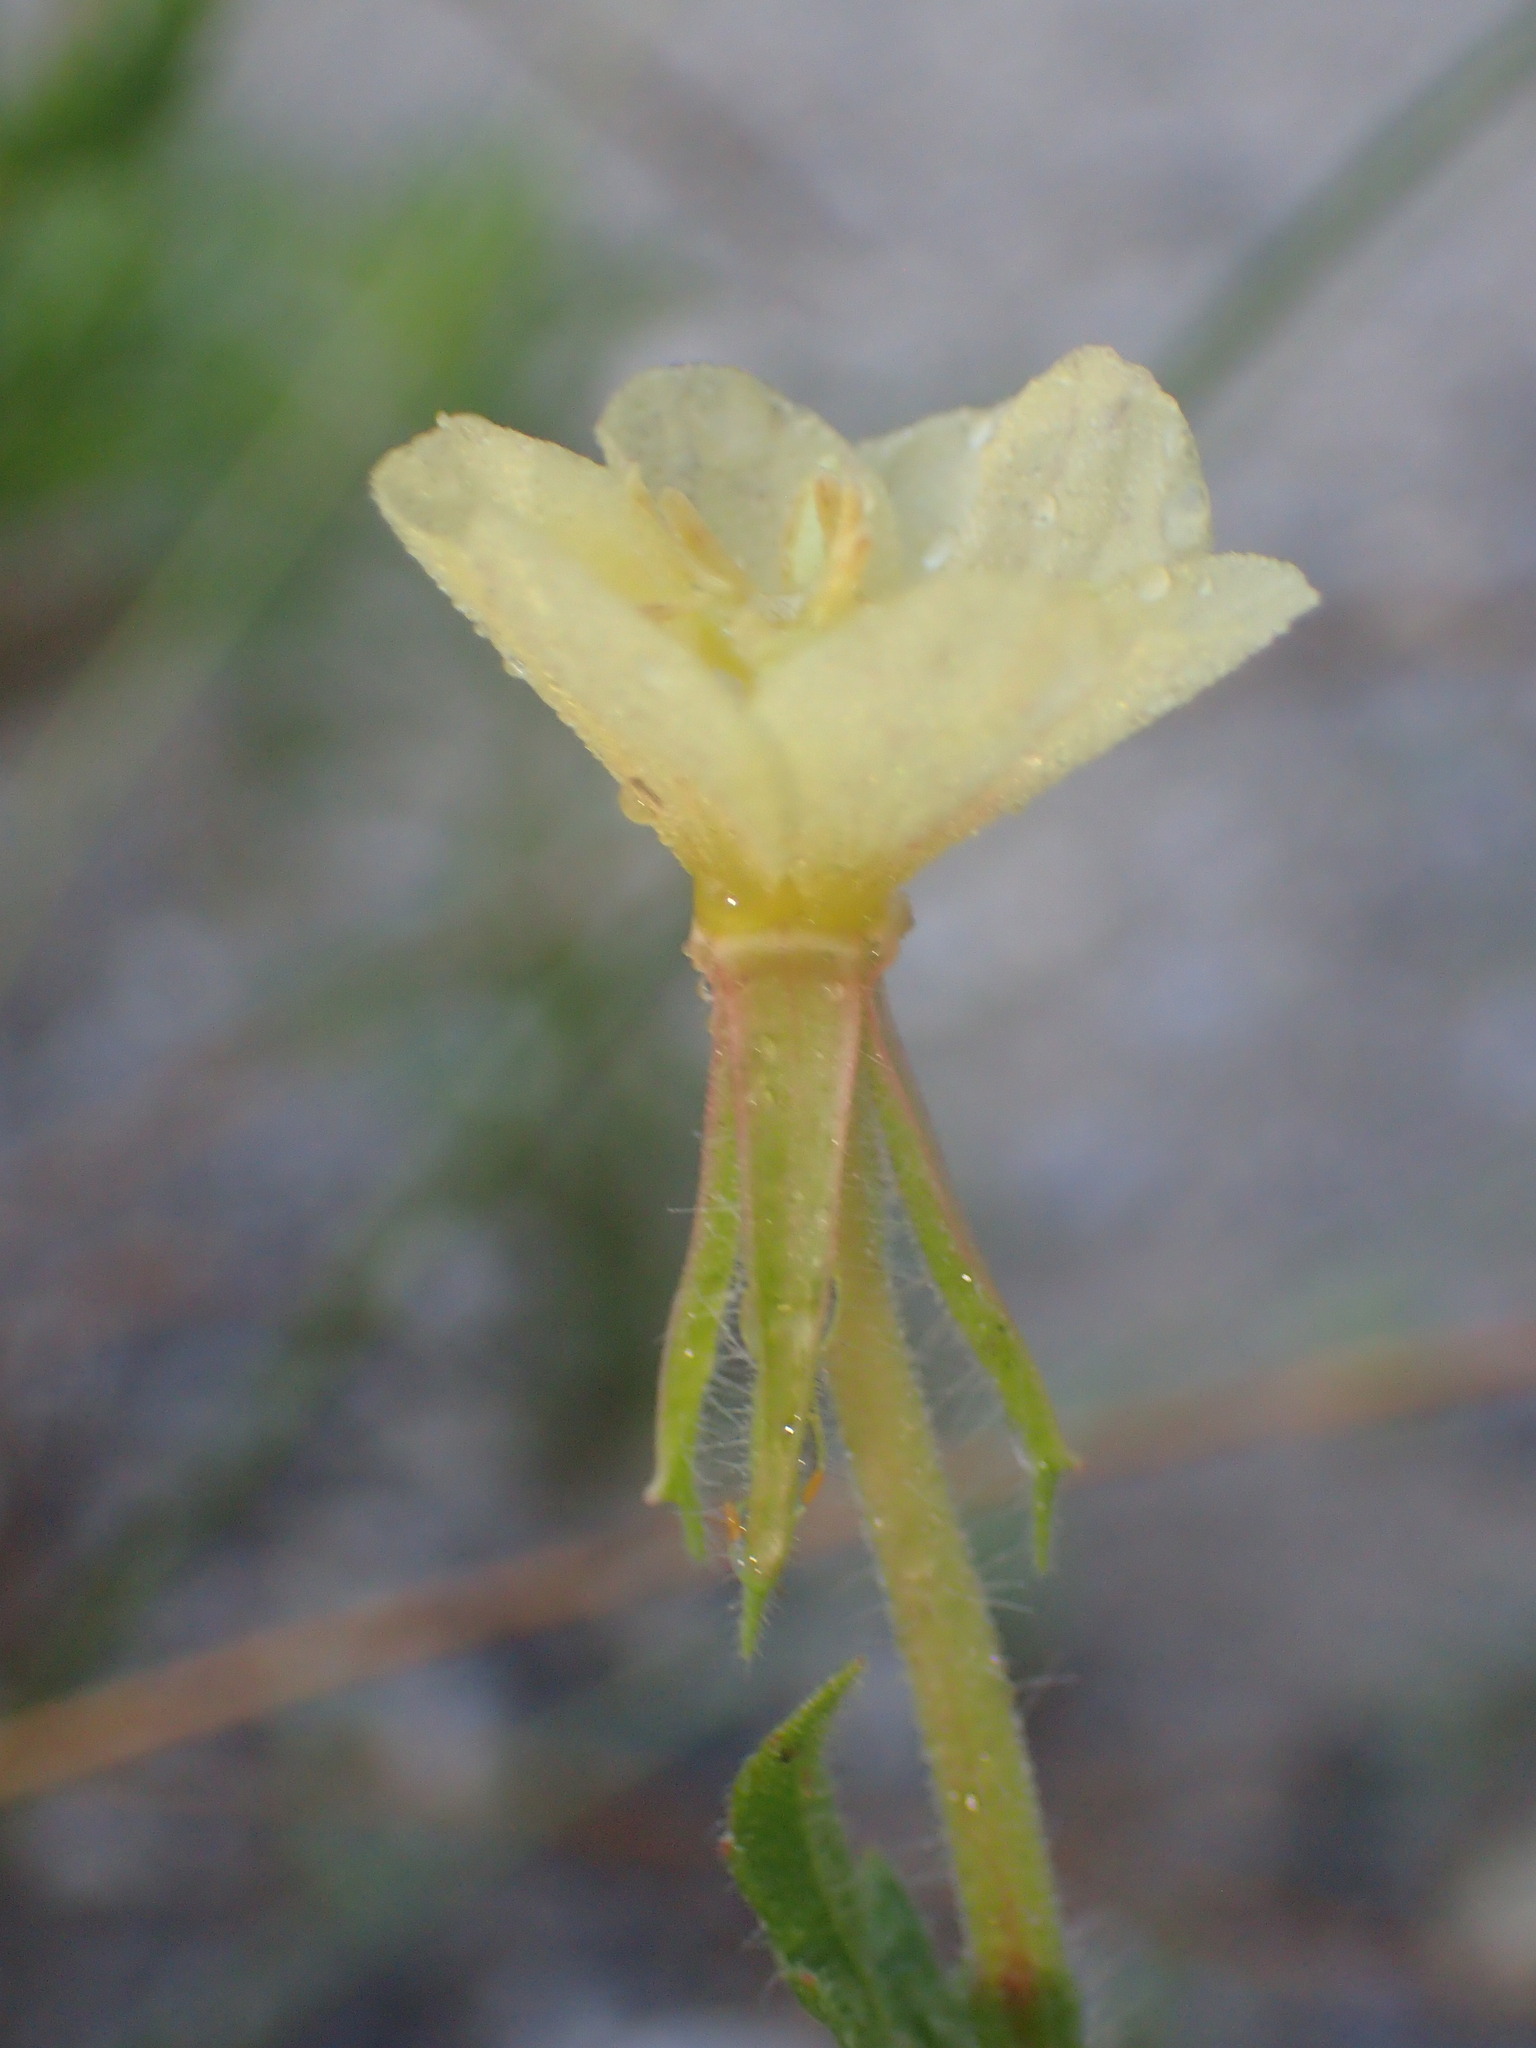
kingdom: Plantae
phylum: Tracheophyta
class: Magnoliopsida
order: Myrtales
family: Onagraceae
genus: Oenothera
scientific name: Oenothera laciniata
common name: Cut-leaved evening-primrose
